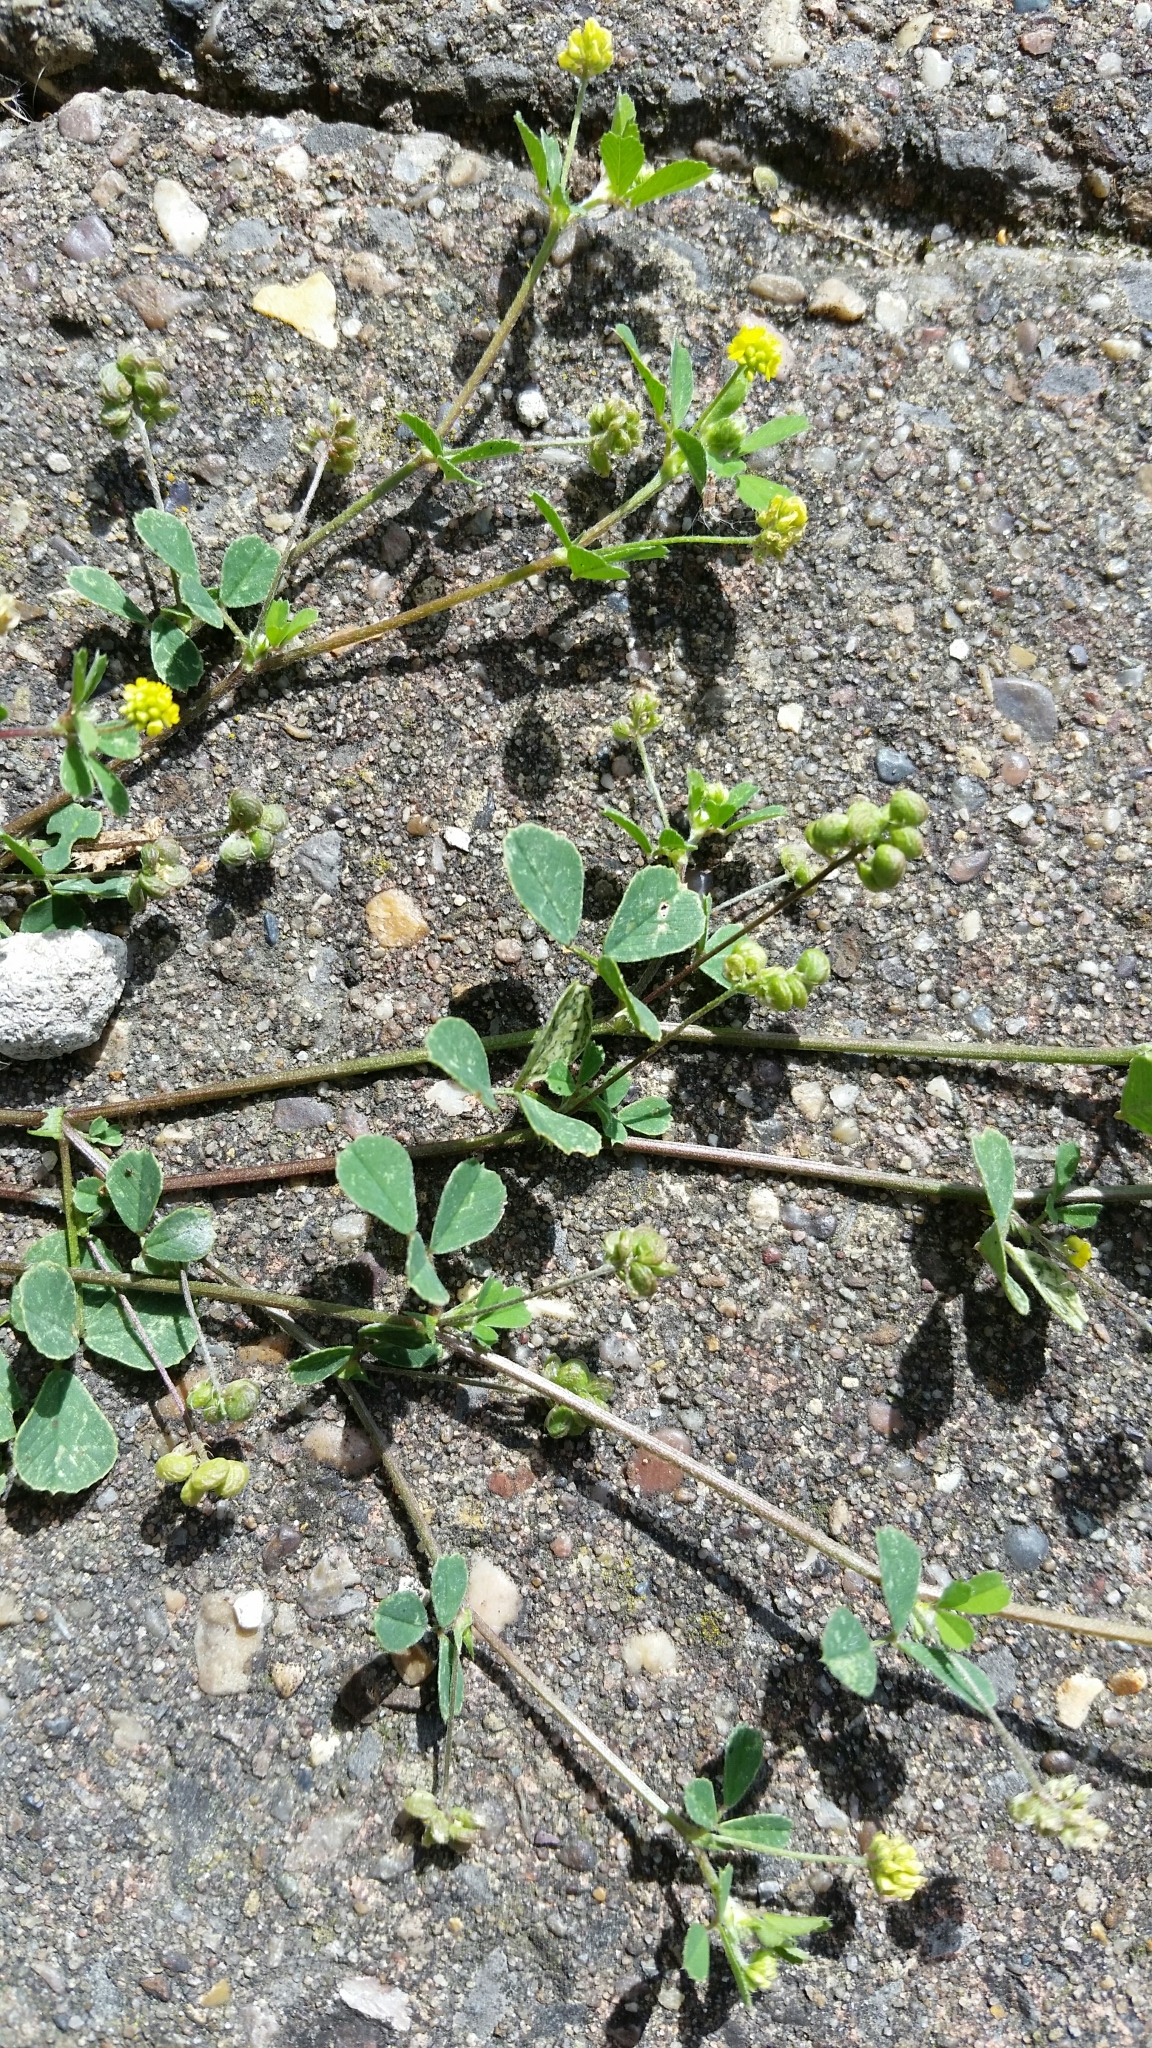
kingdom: Plantae
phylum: Tracheophyta
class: Magnoliopsida
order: Fabales
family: Fabaceae
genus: Medicago
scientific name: Medicago lupulina
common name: Black medick
